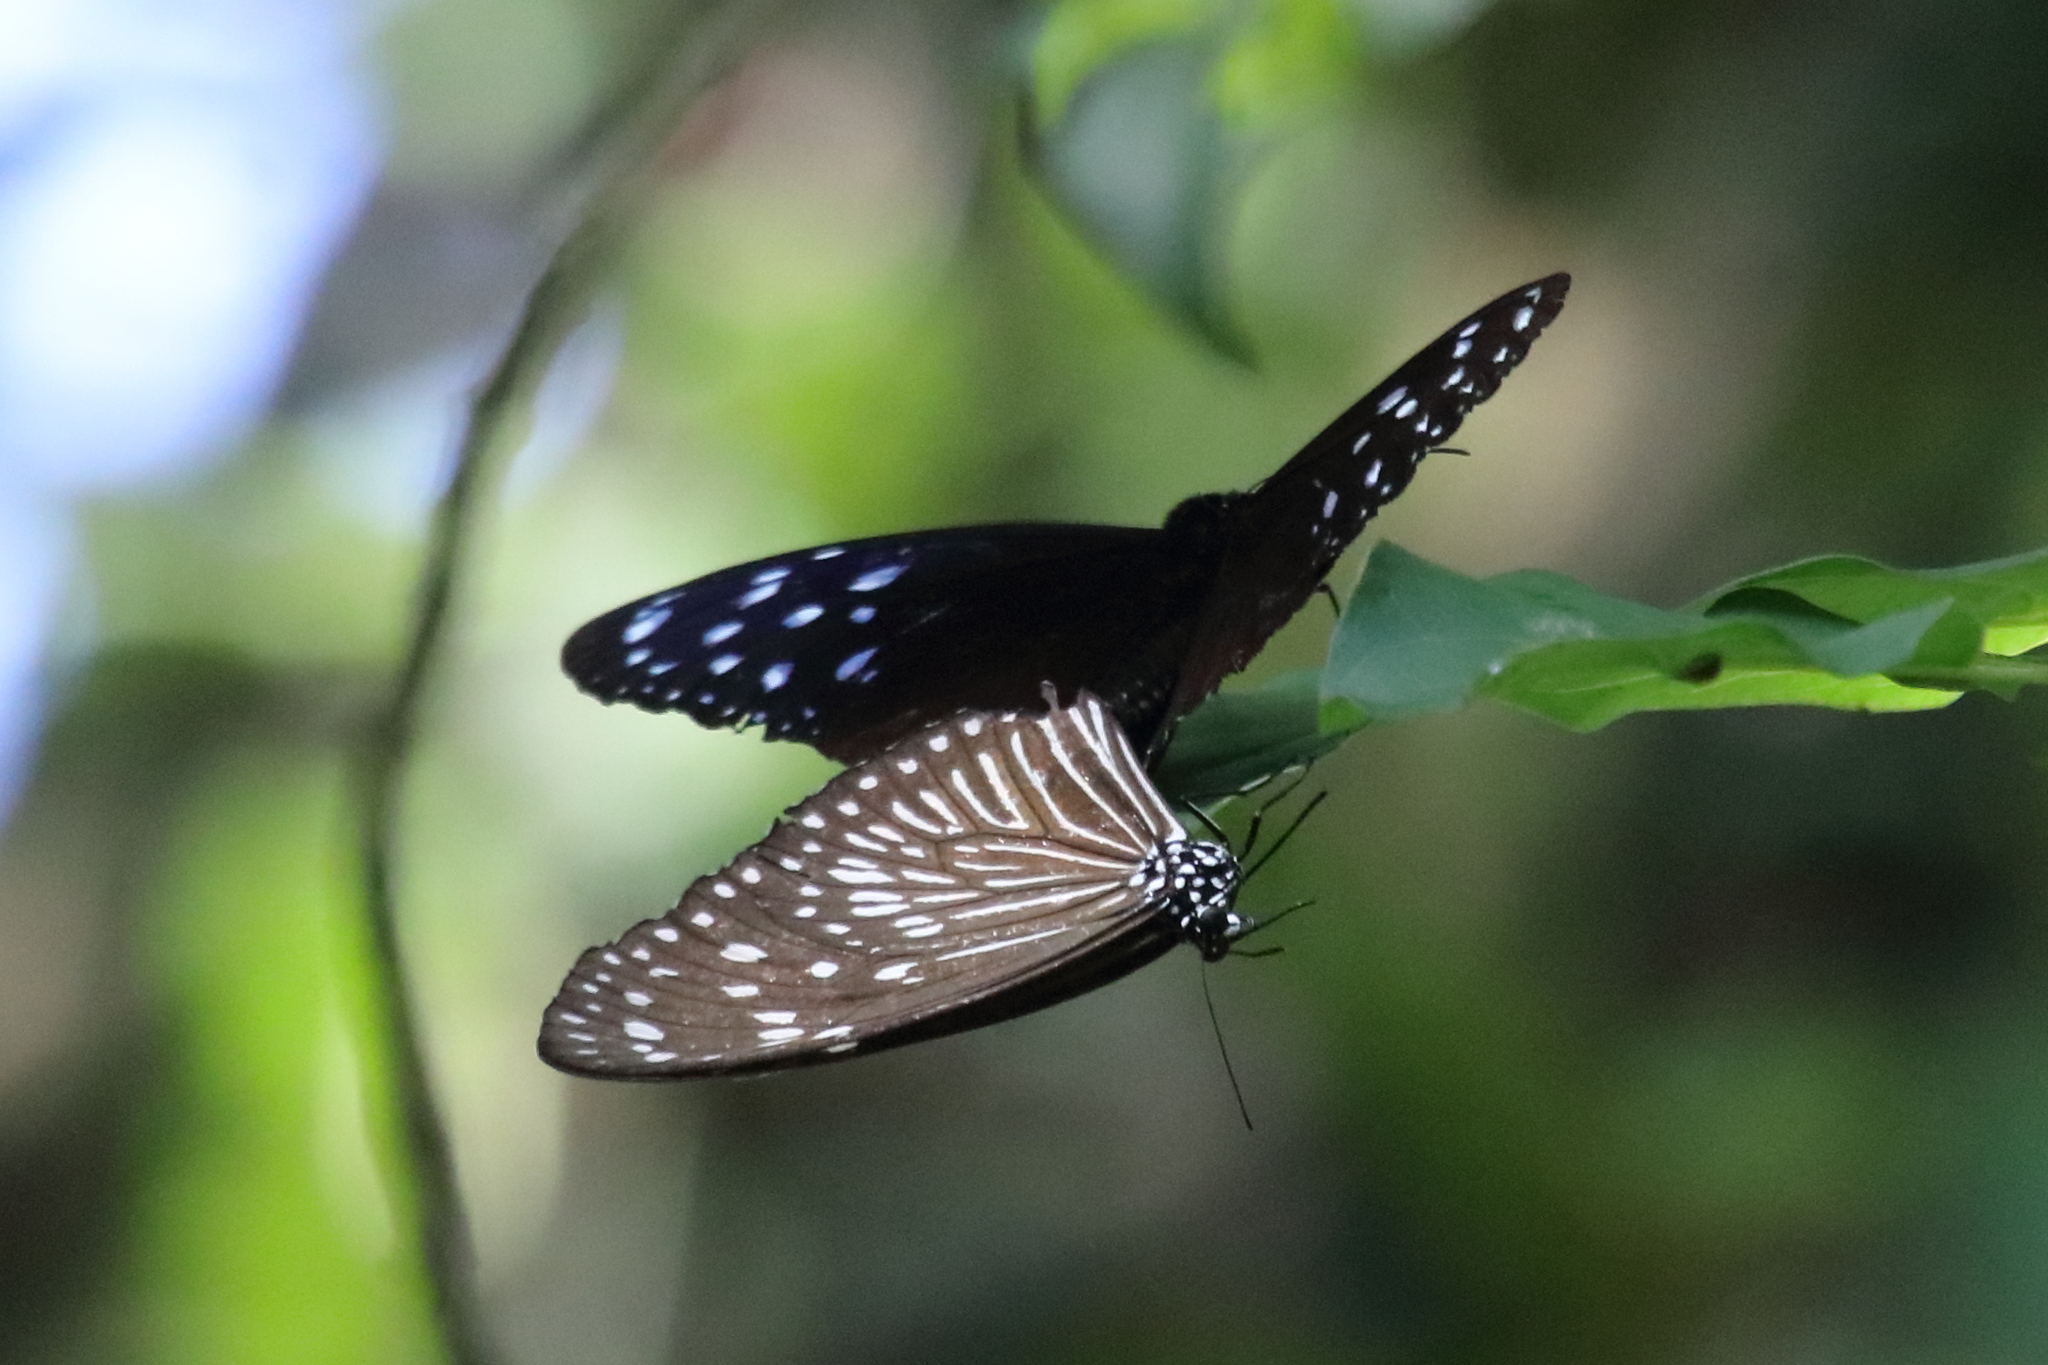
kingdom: Animalia
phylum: Arthropoda
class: Insecta
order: Lepidoptera
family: Nymphalidae
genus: Euploea
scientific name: Euploea mulciber
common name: Striped blue crow butterfly
